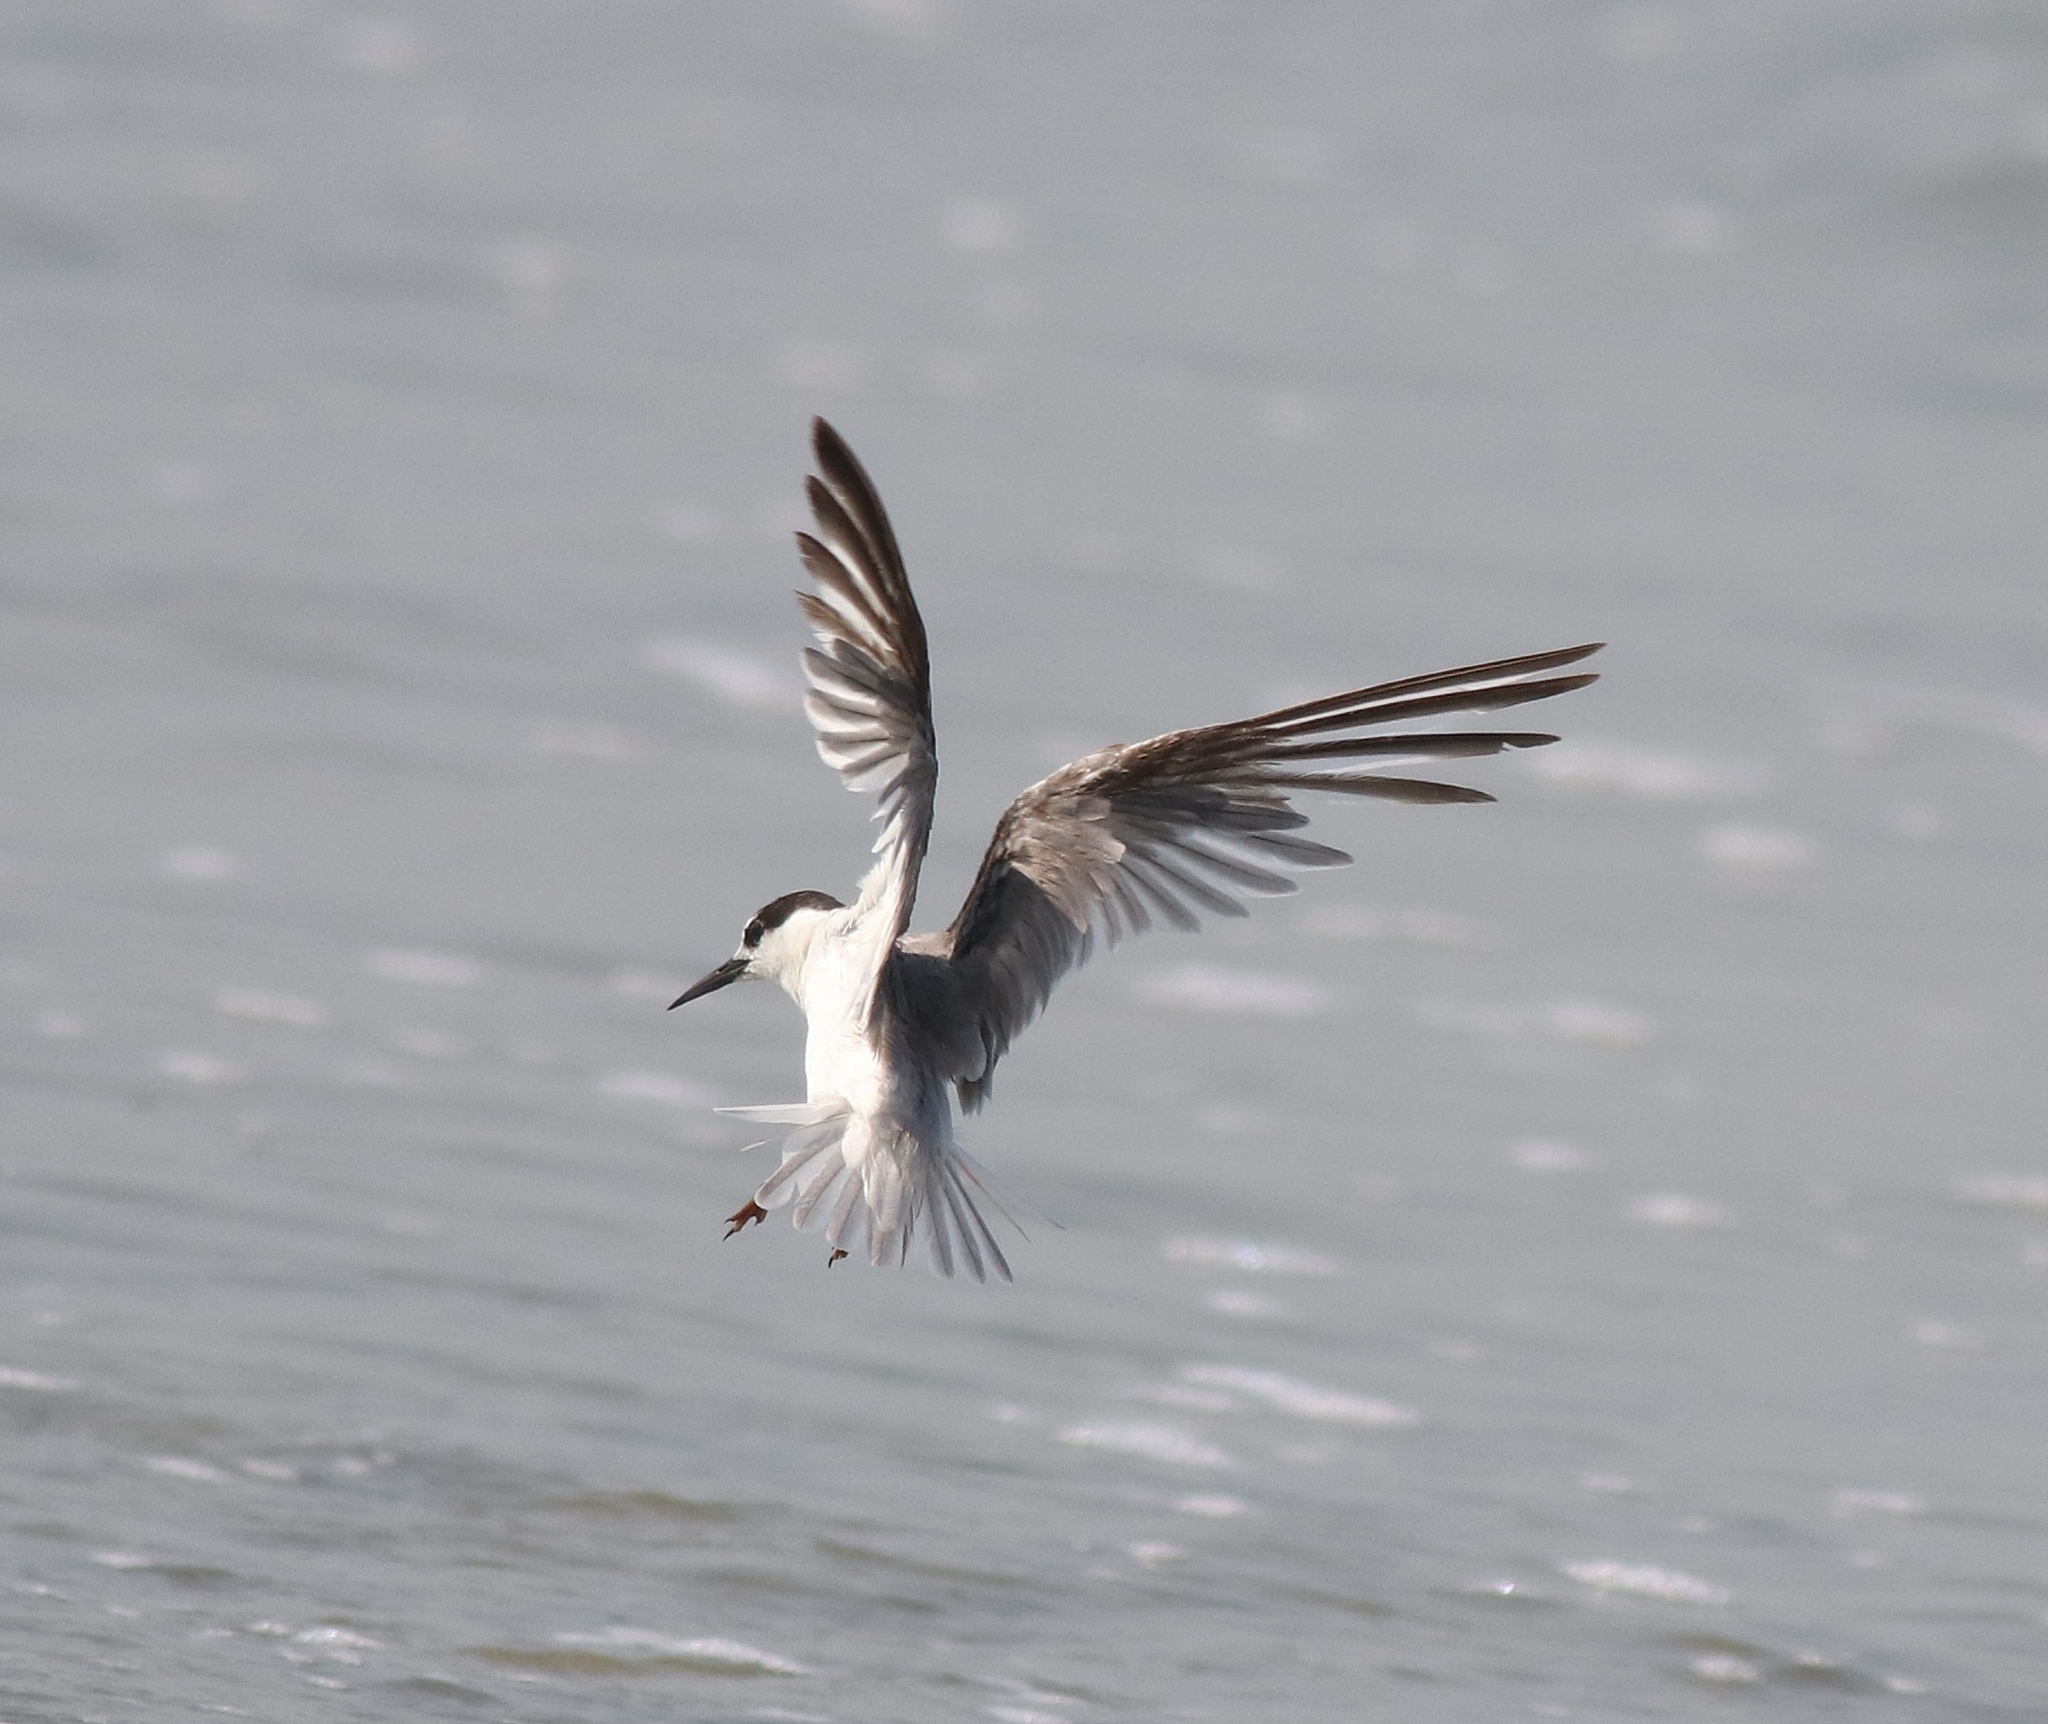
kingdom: Animalia
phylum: Chordata
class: Aves
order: Charadriiformes
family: Laridae
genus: Sternula
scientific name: Sternula albifrons
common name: Little tern
